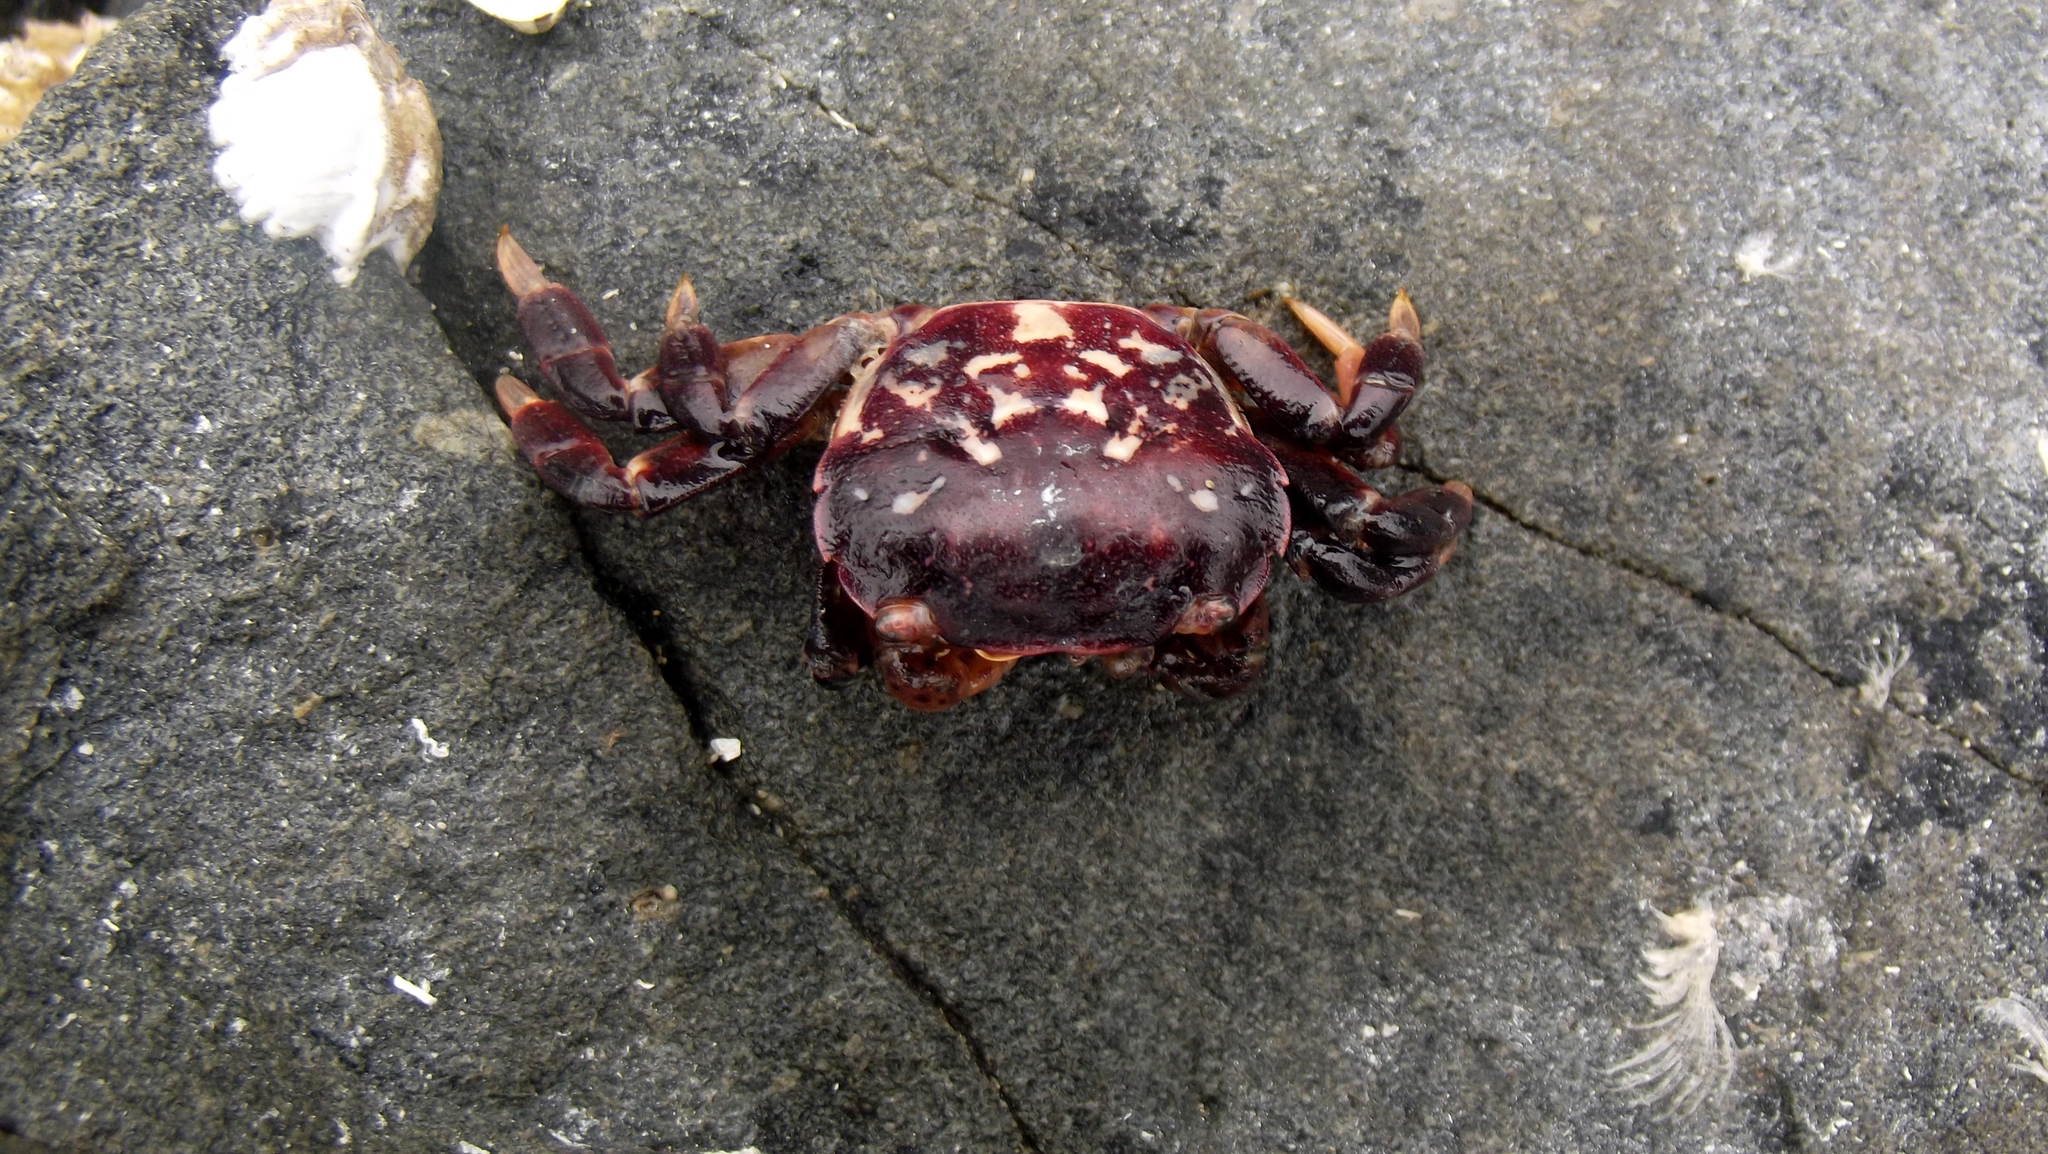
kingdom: Animalia
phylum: Arthropoda
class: Malacostraca
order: Decapoda
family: Varunidae
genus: Hemigrapsus
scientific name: Hemigrapsus nudus
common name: Purple shore crab
